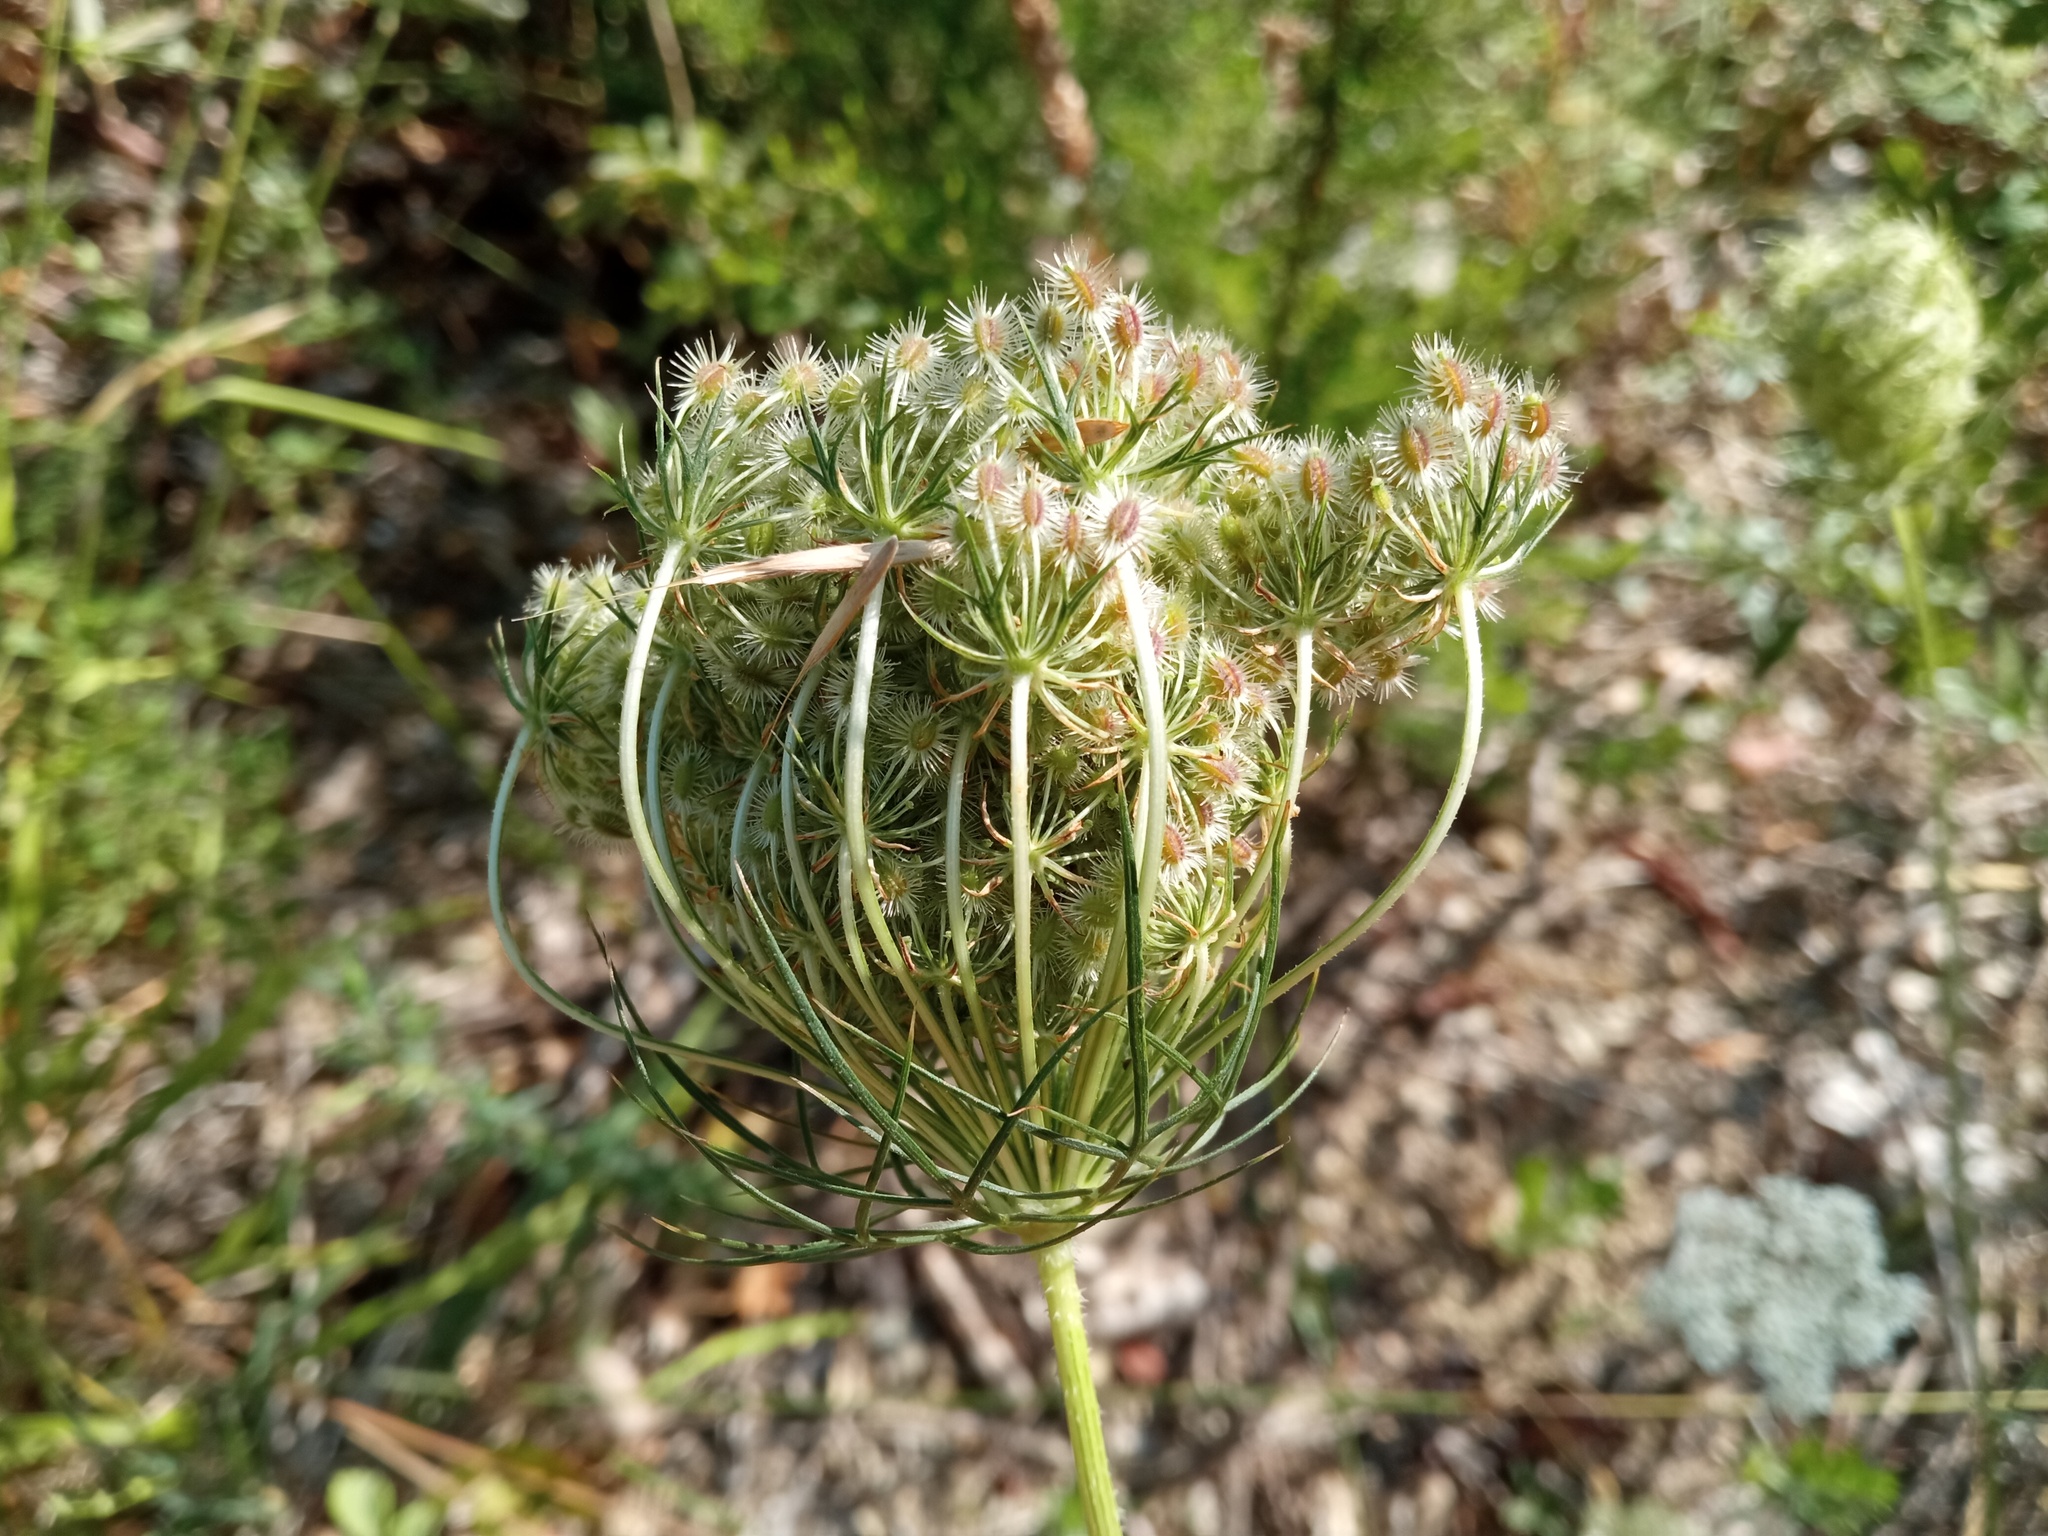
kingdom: Plantae
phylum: Tracheophyta
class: Magnoliopsida
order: Apiales
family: Apiaceae
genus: Daucus
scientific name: Daucus carota
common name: Wild carrot
